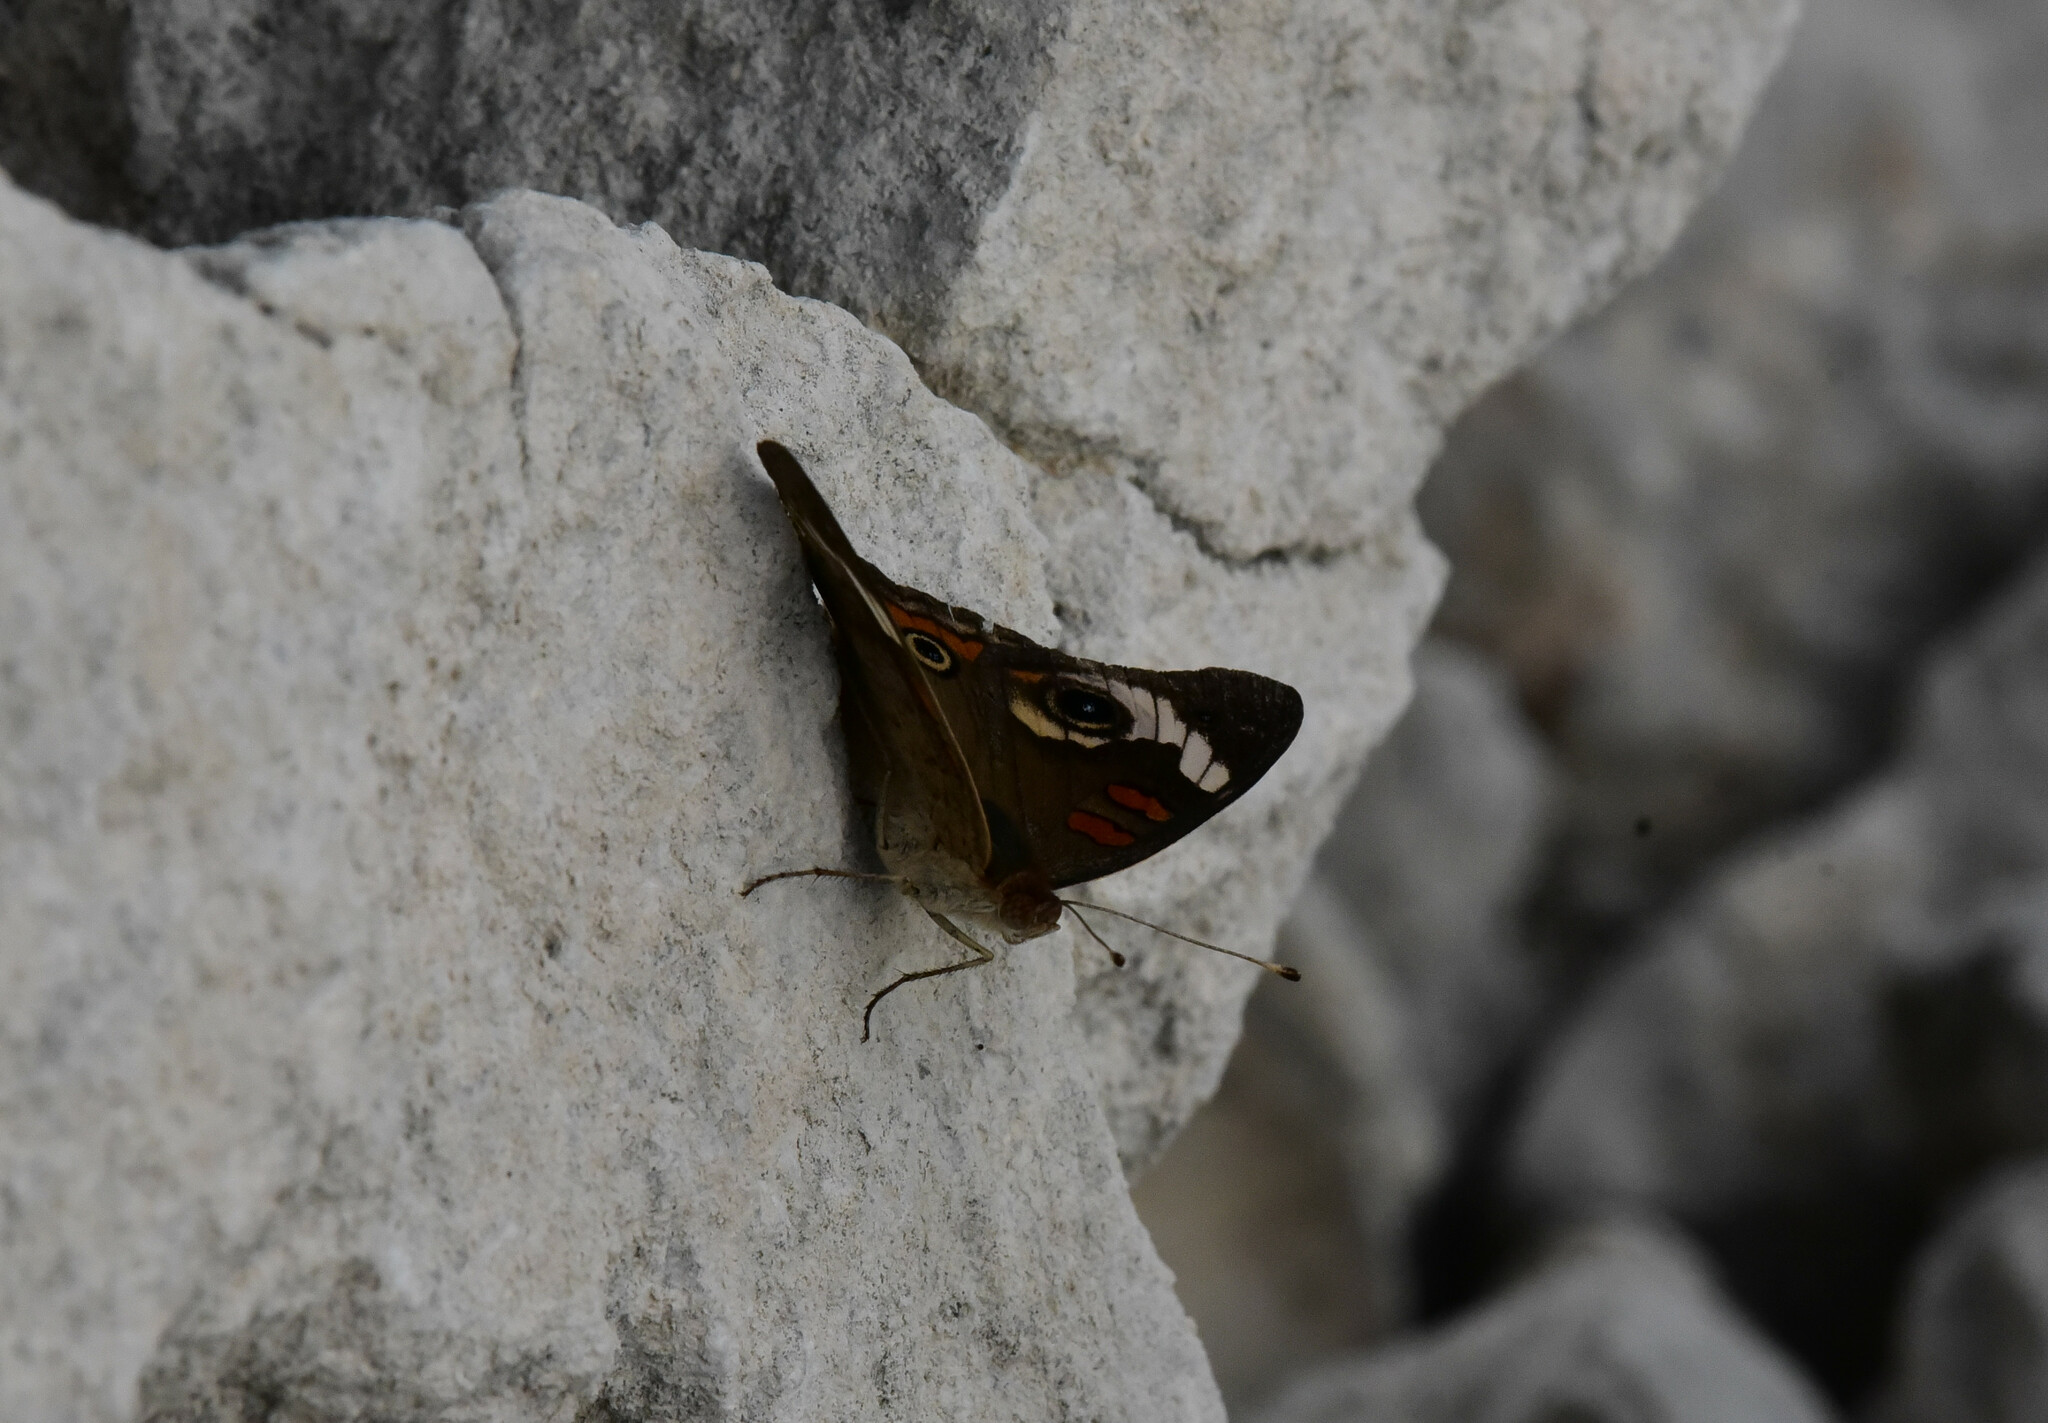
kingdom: Animalia
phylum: Arthropoda
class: Insecta
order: Lepidoptera
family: Nymphalidae
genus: Junonia
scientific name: Junonia coenia
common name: Common buckeye
